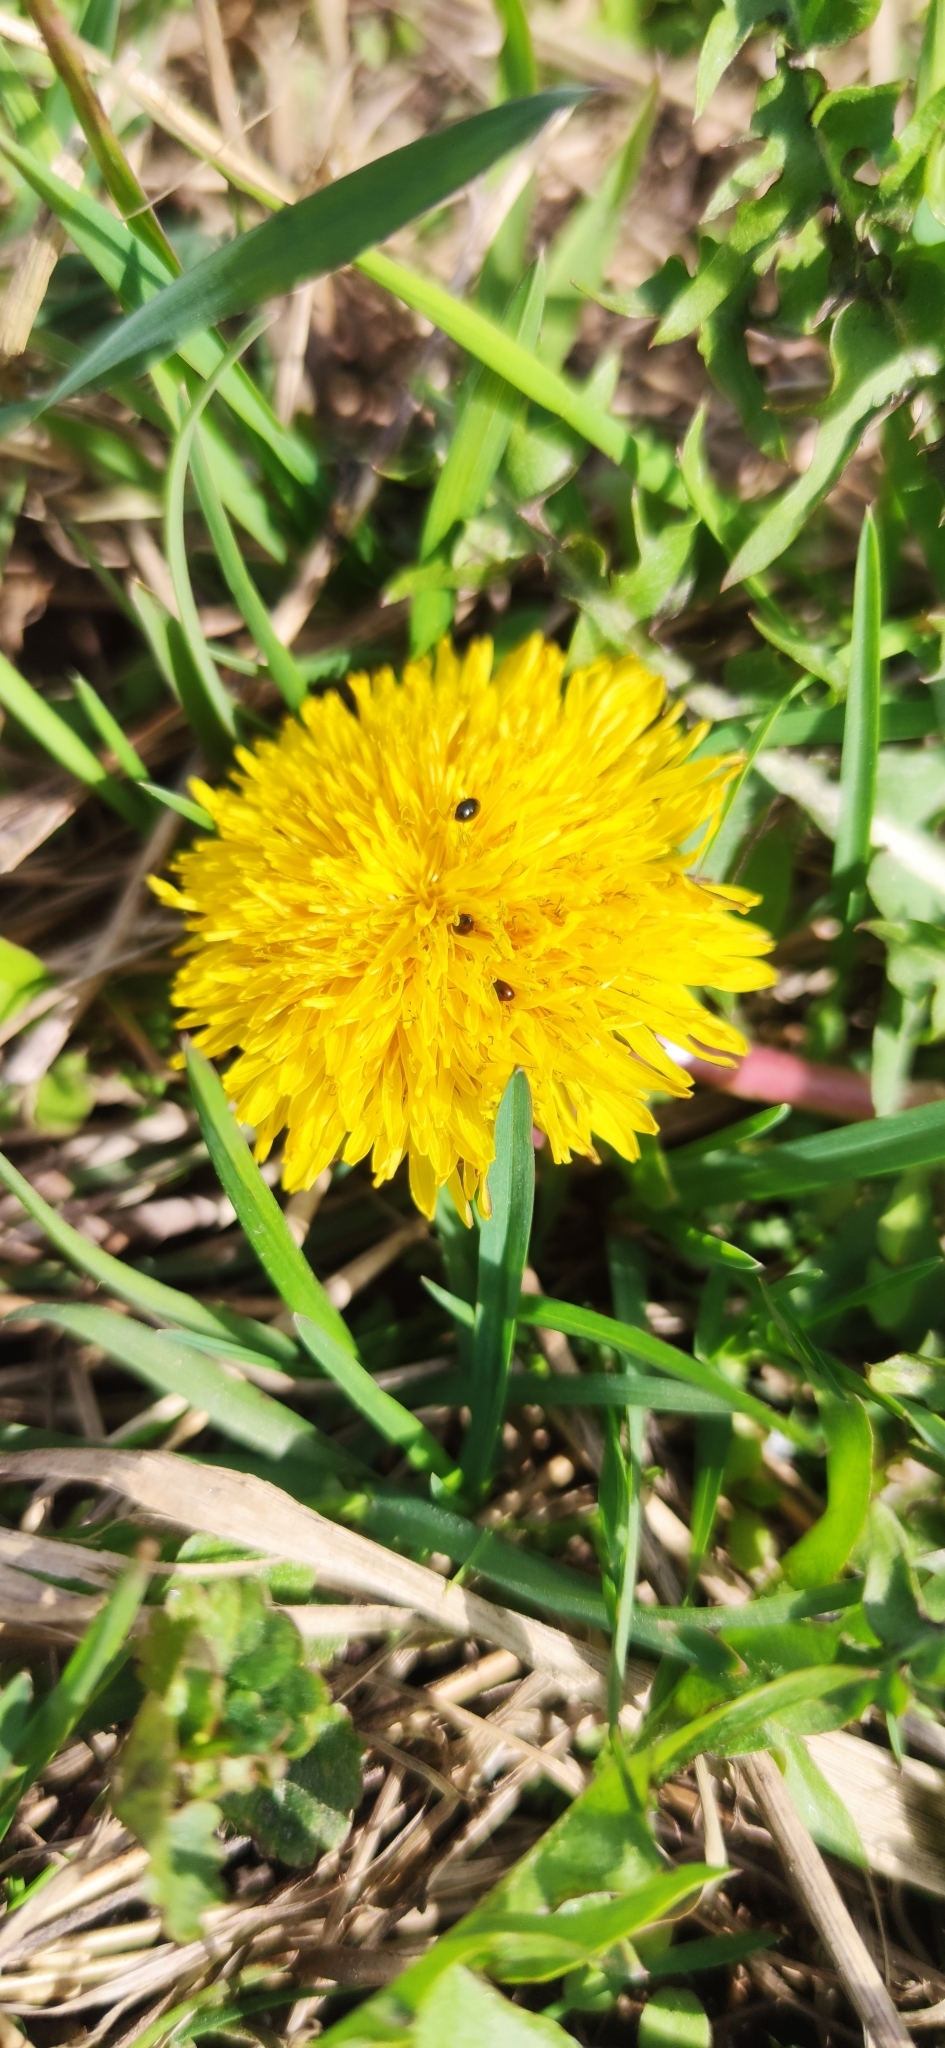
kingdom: Plantae
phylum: Tracheophyta
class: Magnoliopsida
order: Asterales
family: Asteraceae
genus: Taraxacum
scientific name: Taraxacum officinale
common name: Common dandelion
